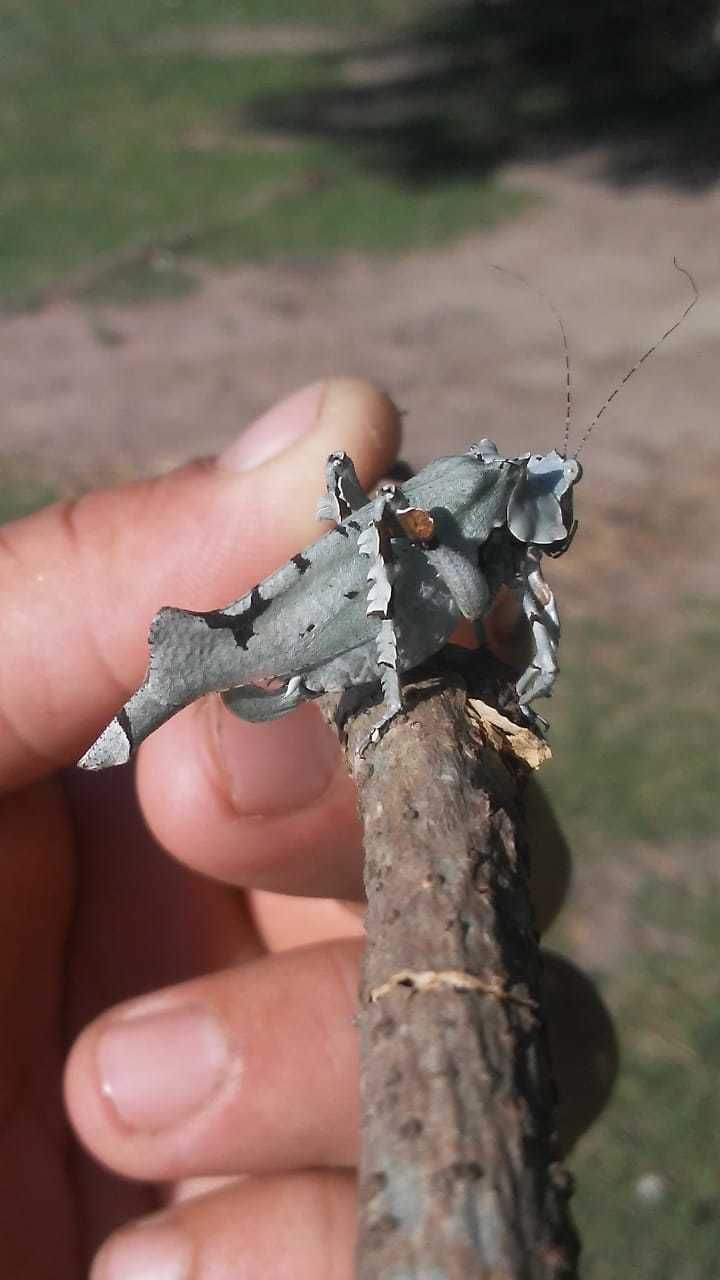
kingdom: Animalia
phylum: Arthropoda
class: Insecta
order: Orthoptera
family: Tettigoniidae
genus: Lichenomorphus
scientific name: Lichenomorphus pirani
